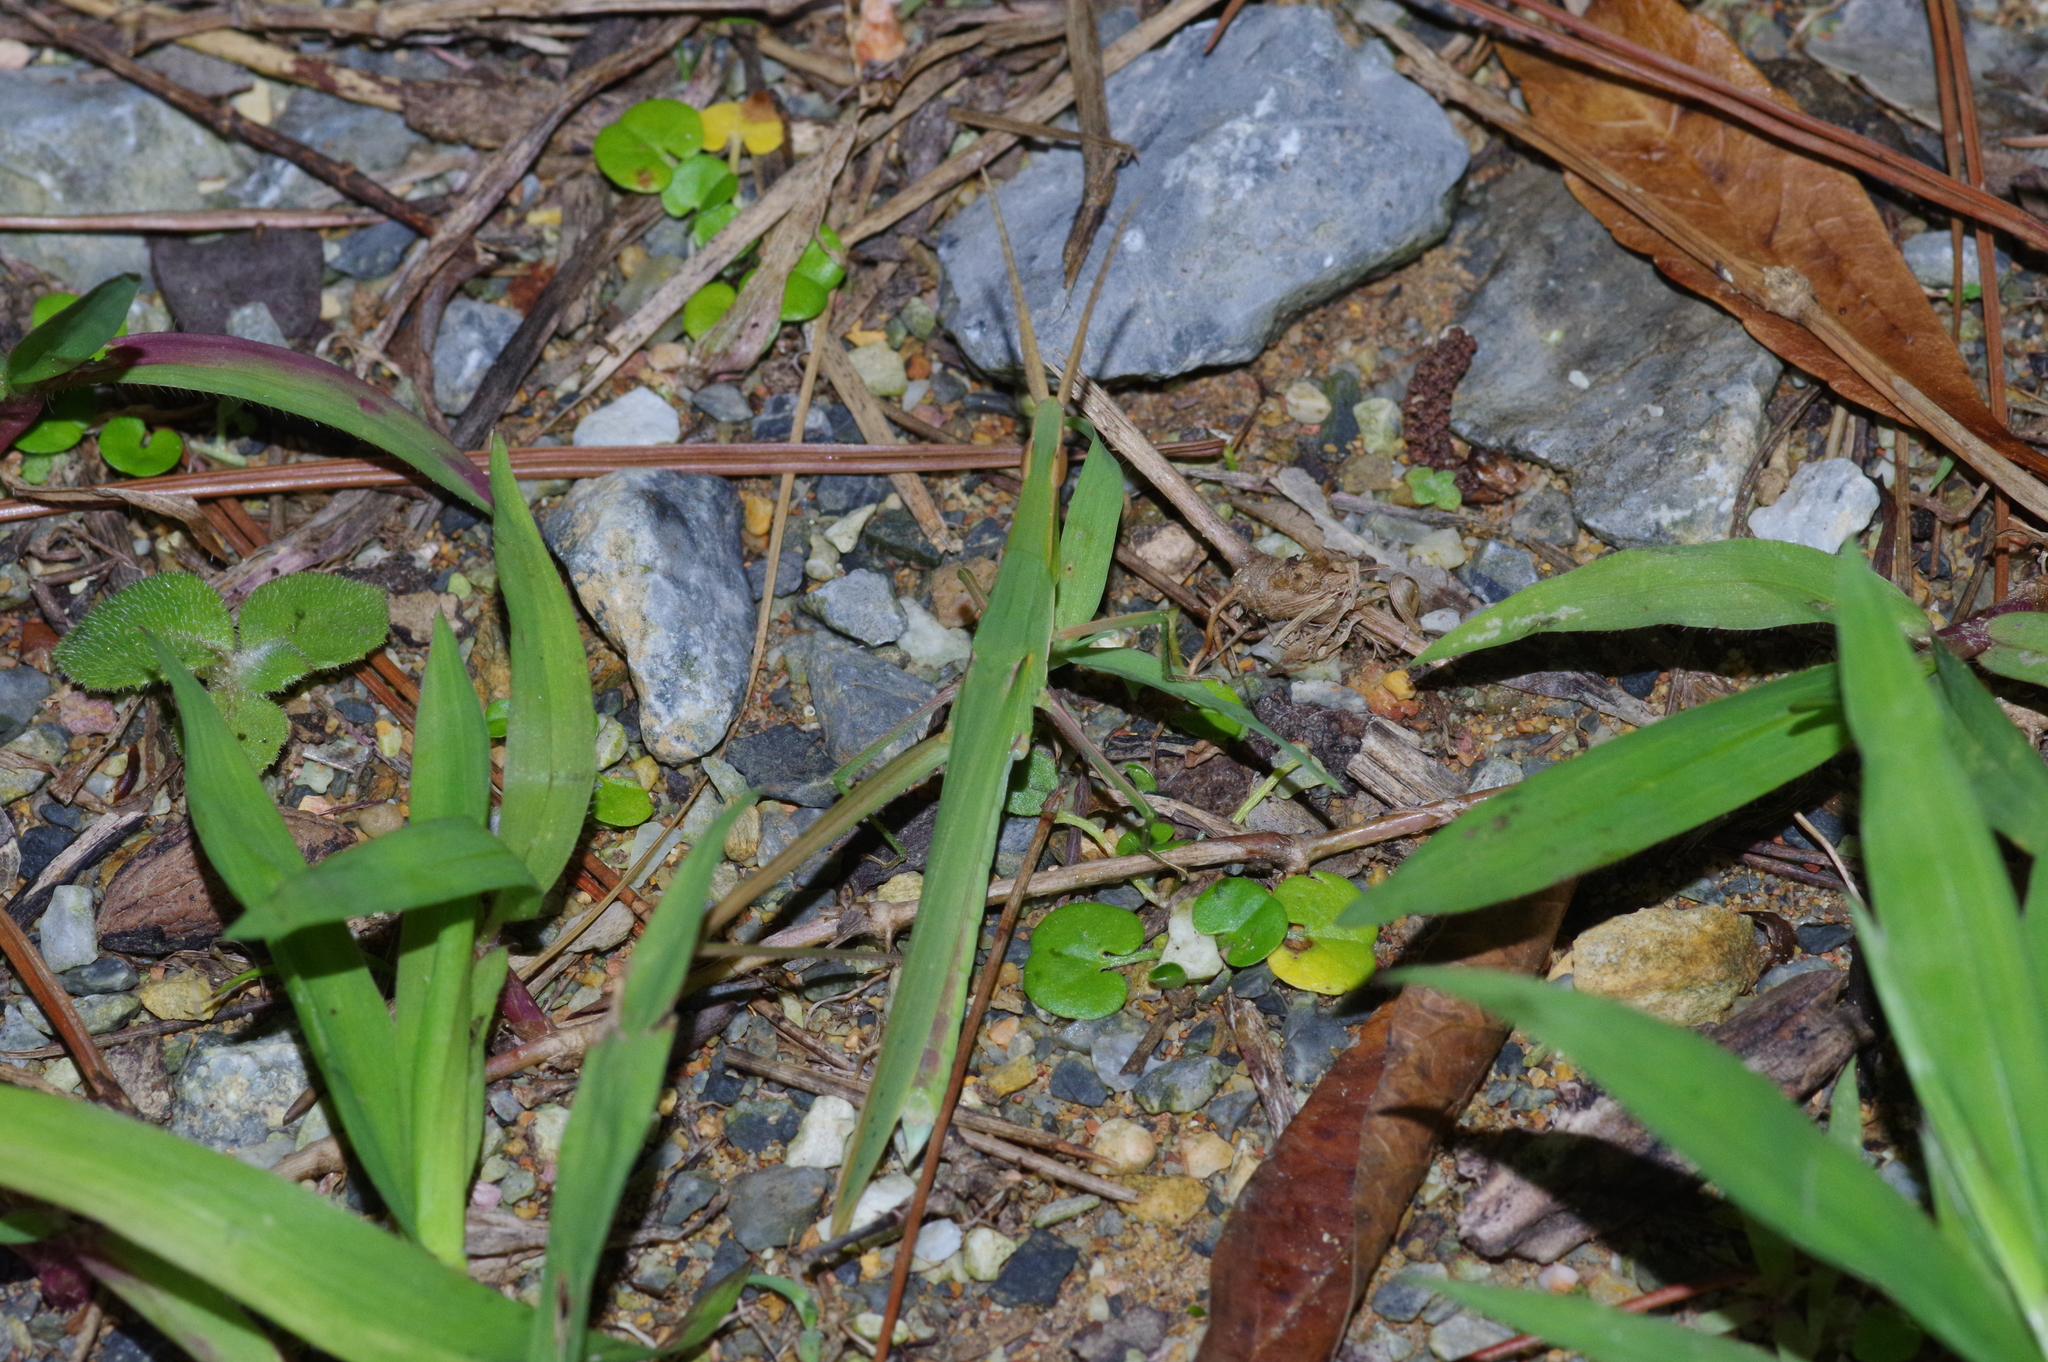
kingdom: Animalia
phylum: Arthropoda
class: Insecta
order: Orthoptera
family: Acrididae
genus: Acrida
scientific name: Acrida cinerea
